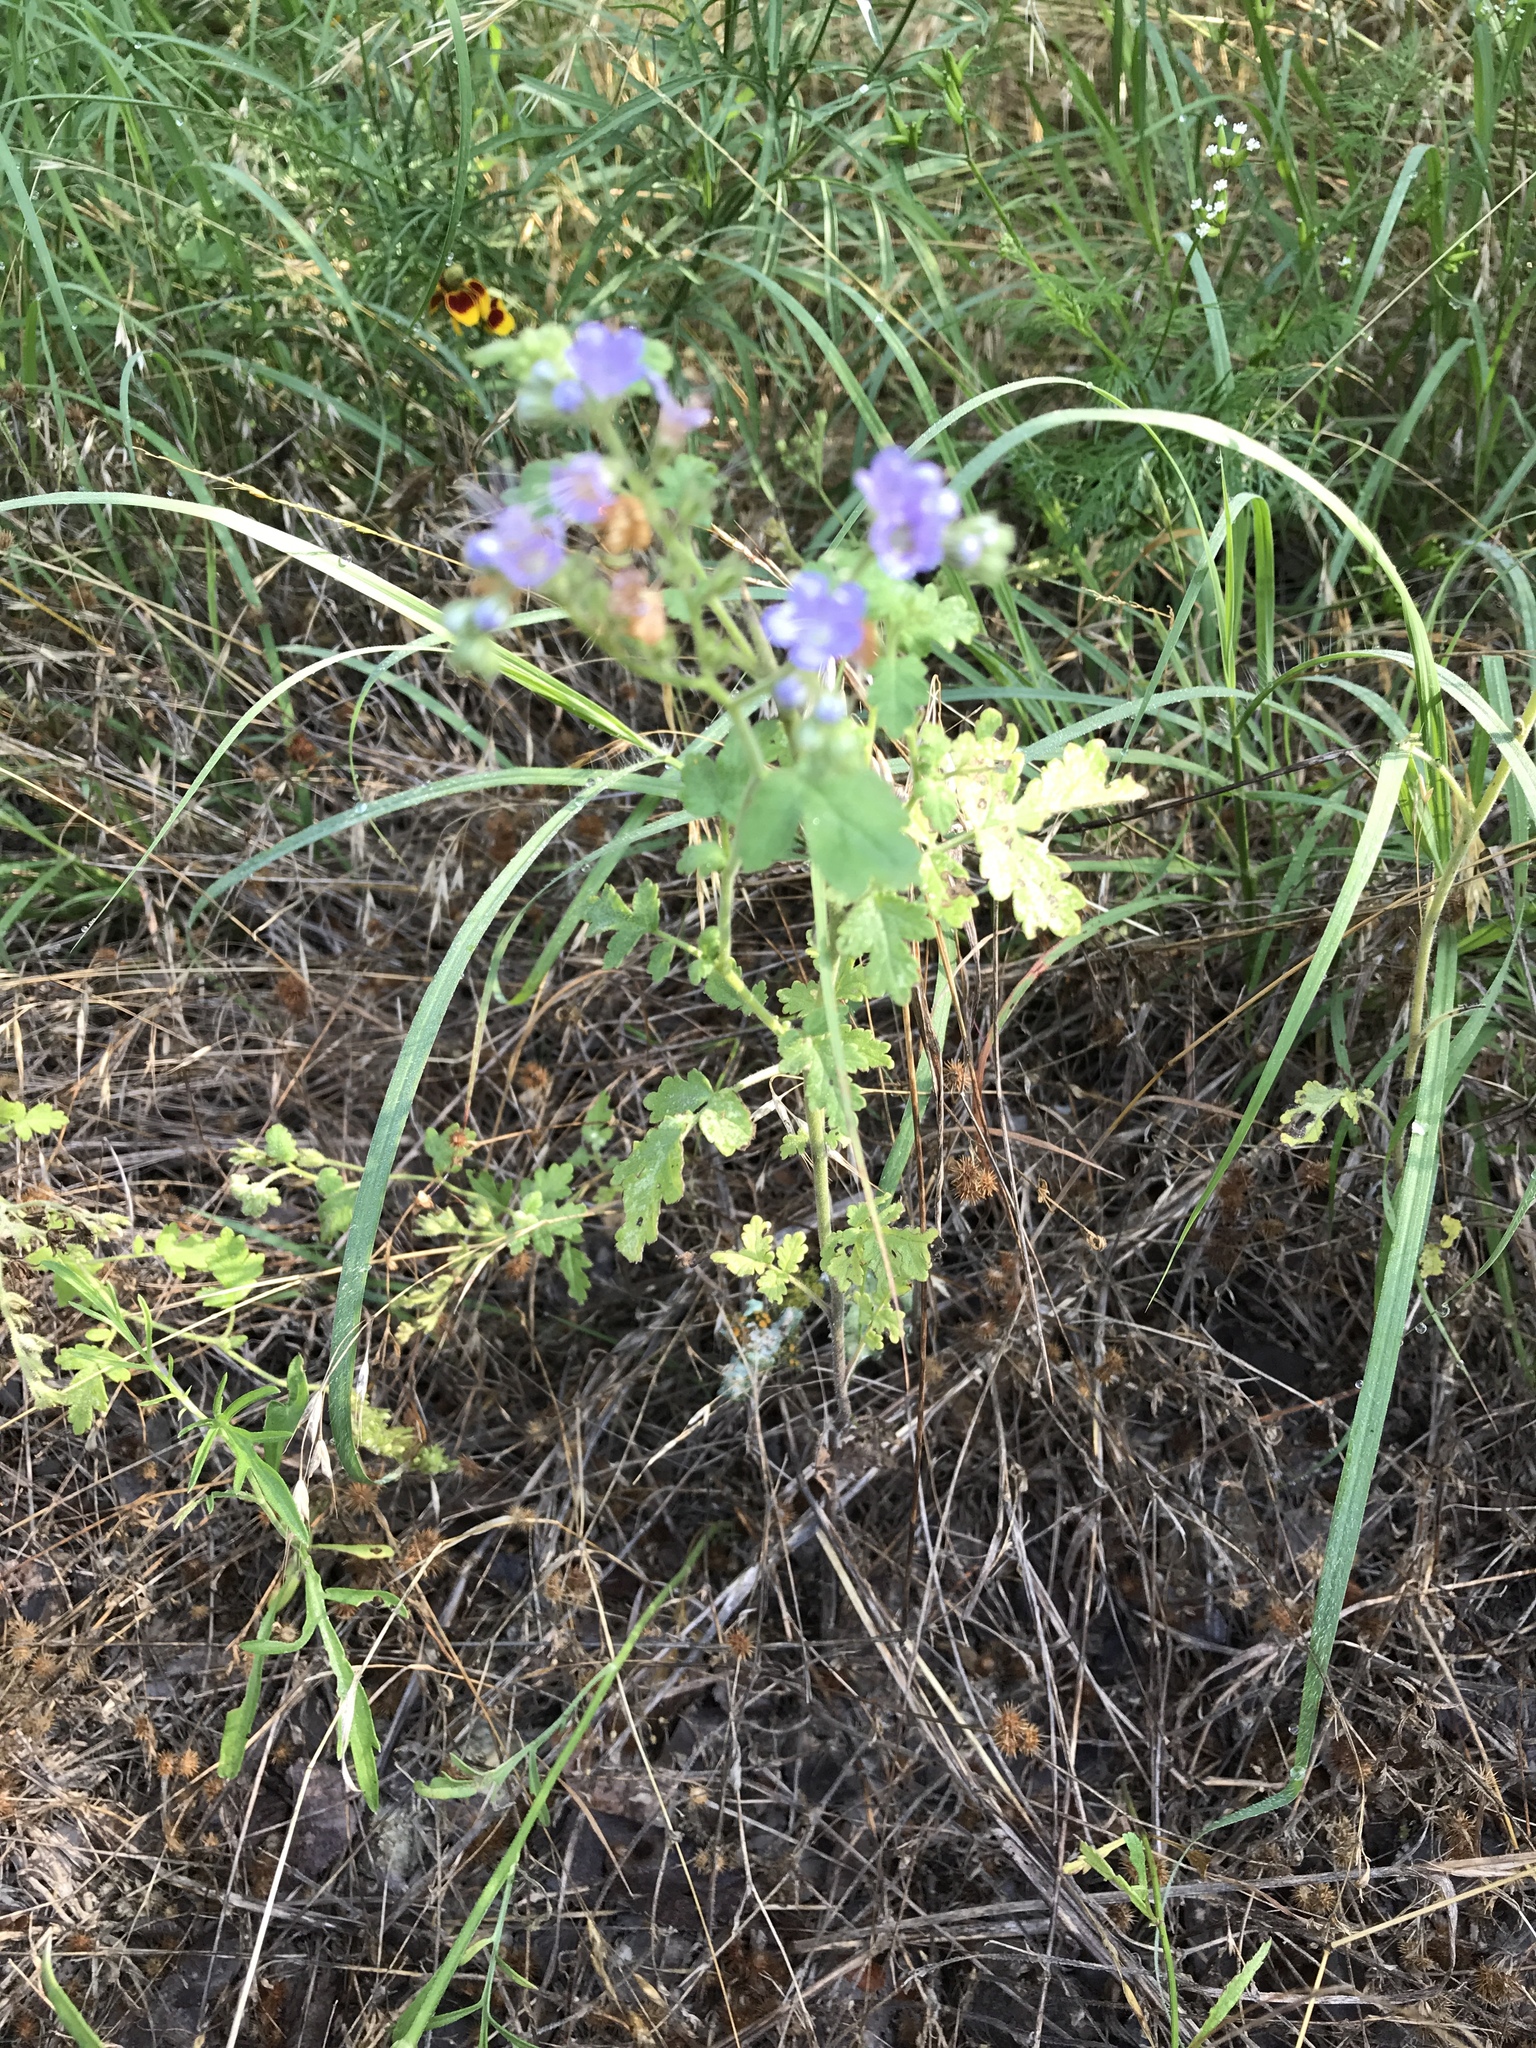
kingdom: Plantae
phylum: Tracheophyta
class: Magnoliopsida
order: Boraginales
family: Hydrophyllaceae
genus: Phacelia
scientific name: Phacelia congesta
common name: Blue curls
